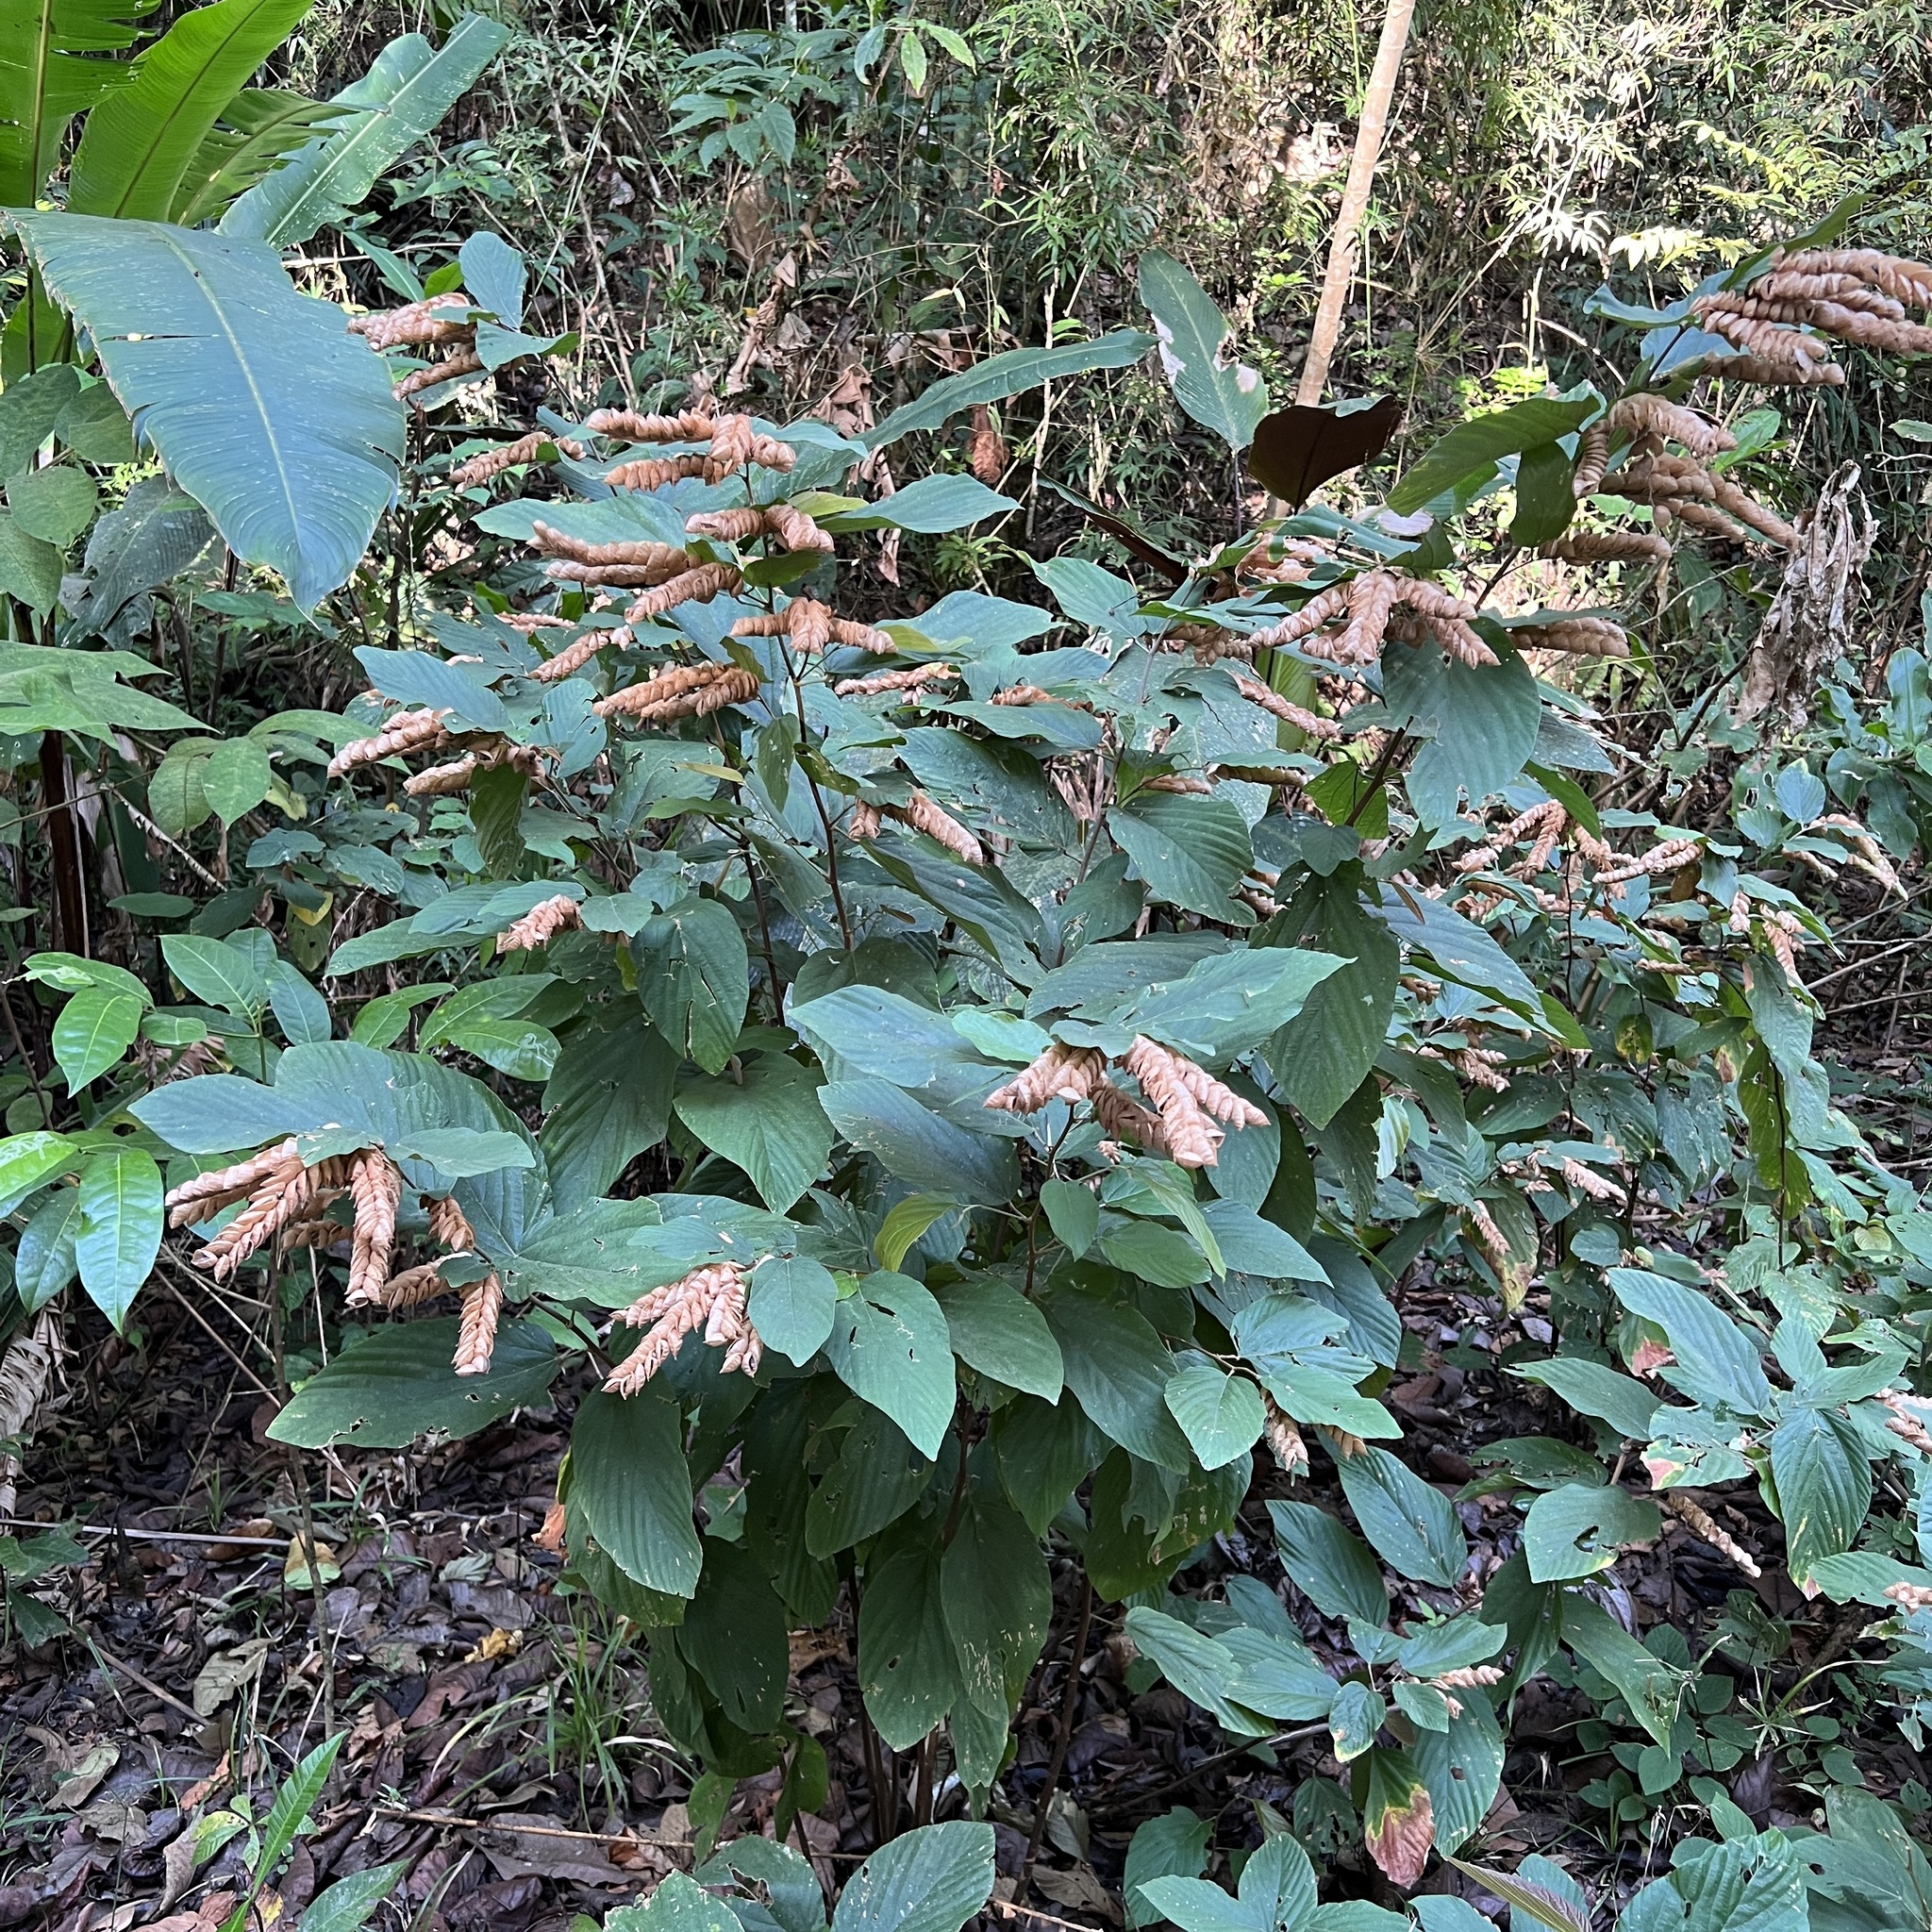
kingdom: Plantae
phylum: Tracheophyta
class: Magnoliopsida
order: Fabales
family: Fabaceae
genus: Flemingia
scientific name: Flemingia strobilifera
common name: Wild hops
